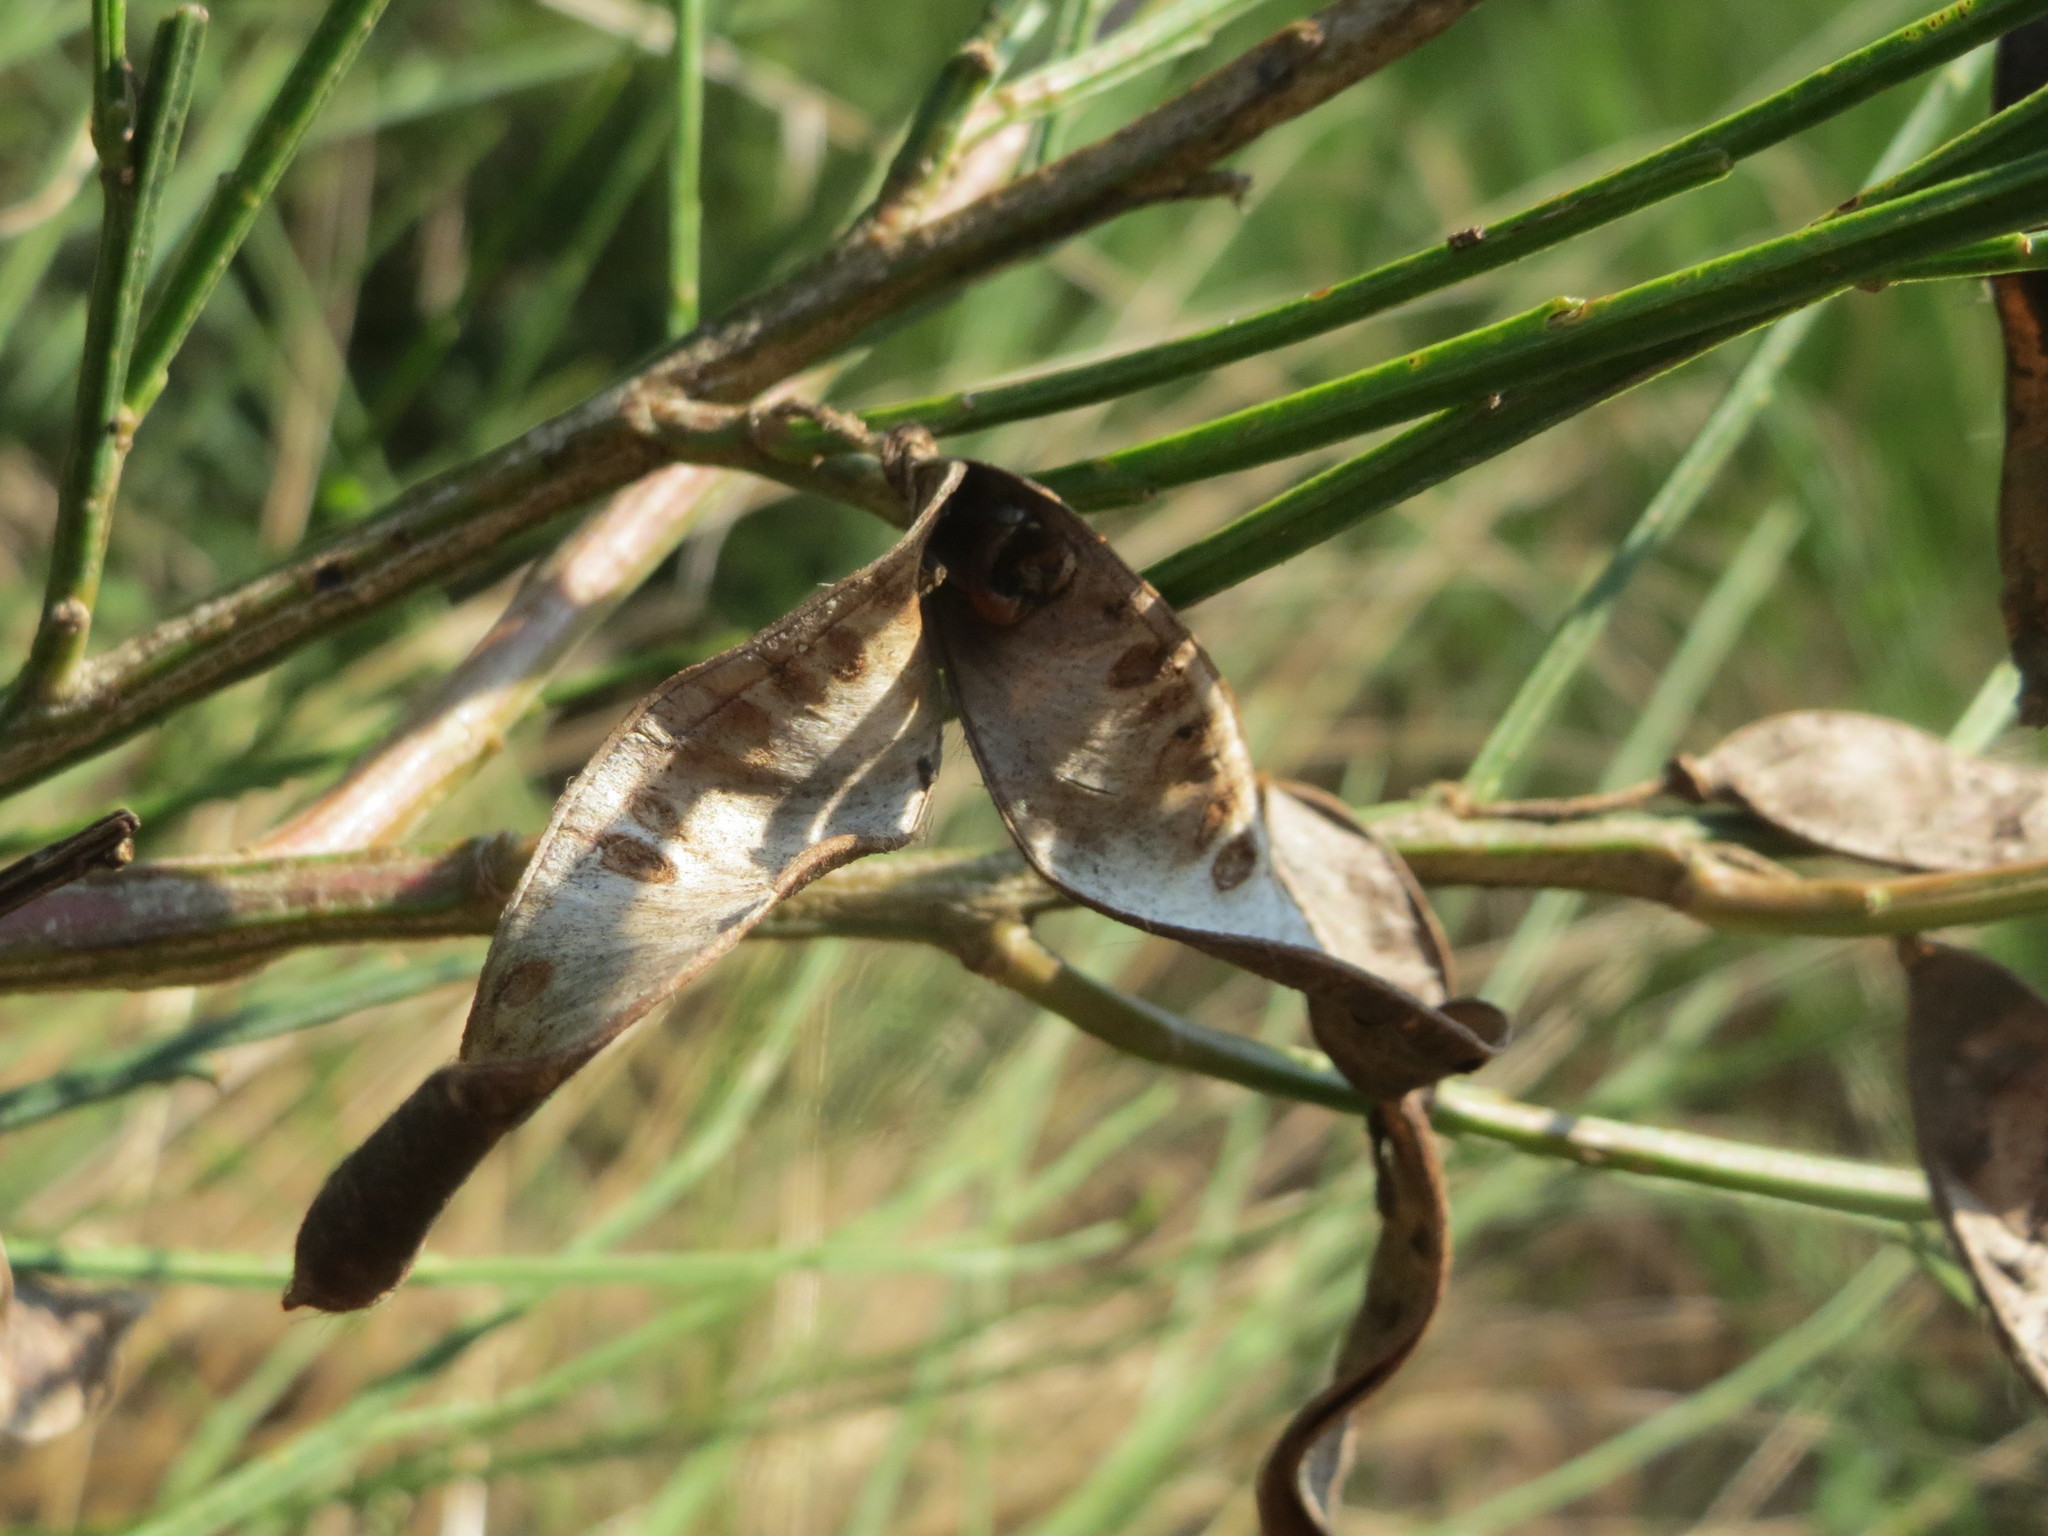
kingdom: Plantae
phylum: Tracheophyta
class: Magnoliopsida
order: Fabales
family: Fabaceae
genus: Cytisus
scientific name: Cytisus scoparius
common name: Scotch broom
